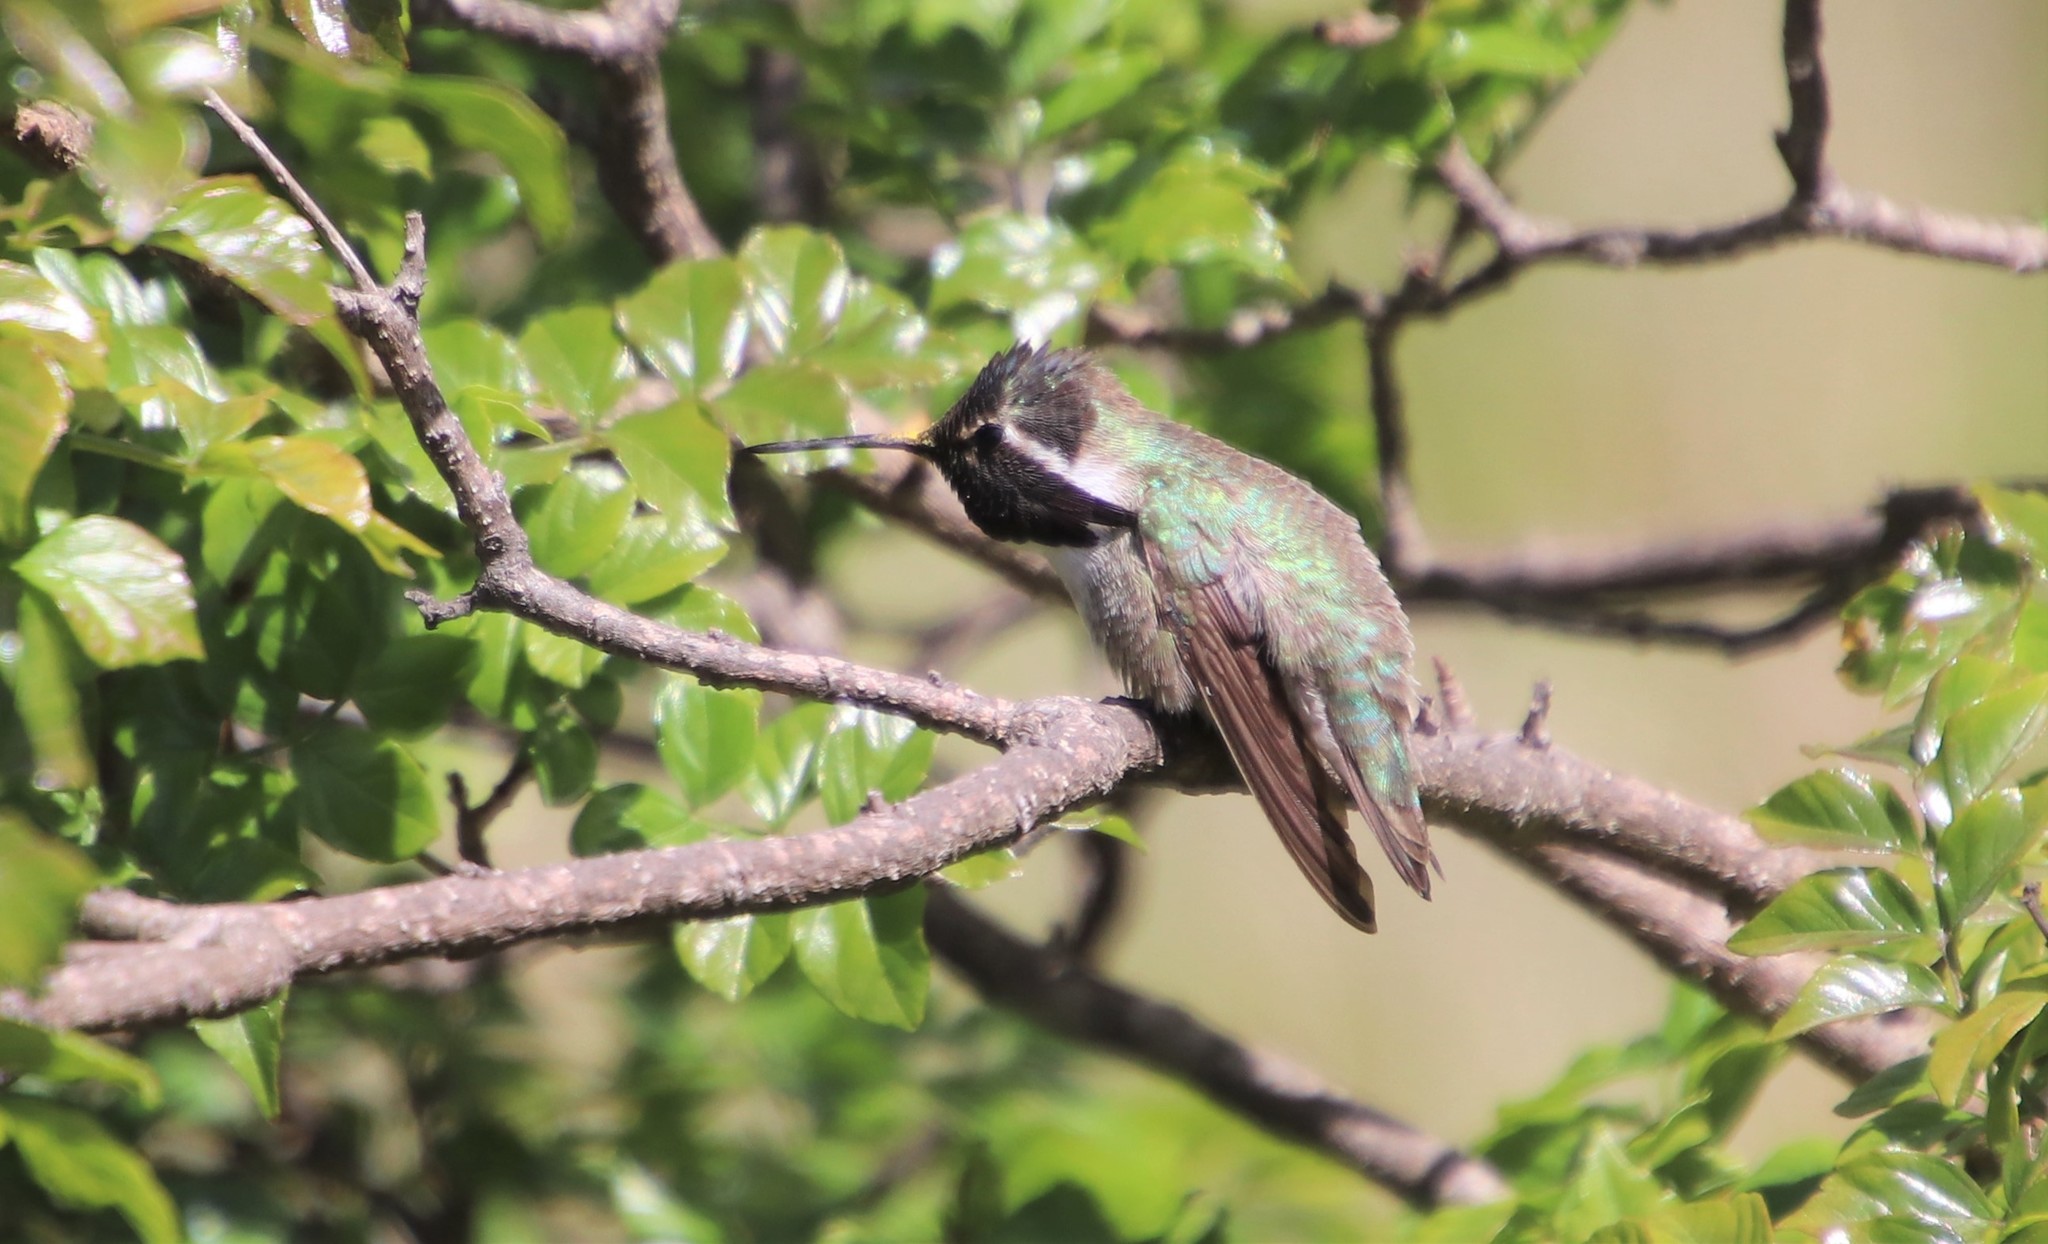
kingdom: Animalia
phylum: Chordata
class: Aves
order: Apodiformes
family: Trochilidae
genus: Calypte
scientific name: Calypte costae
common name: Costa's hummingbird
